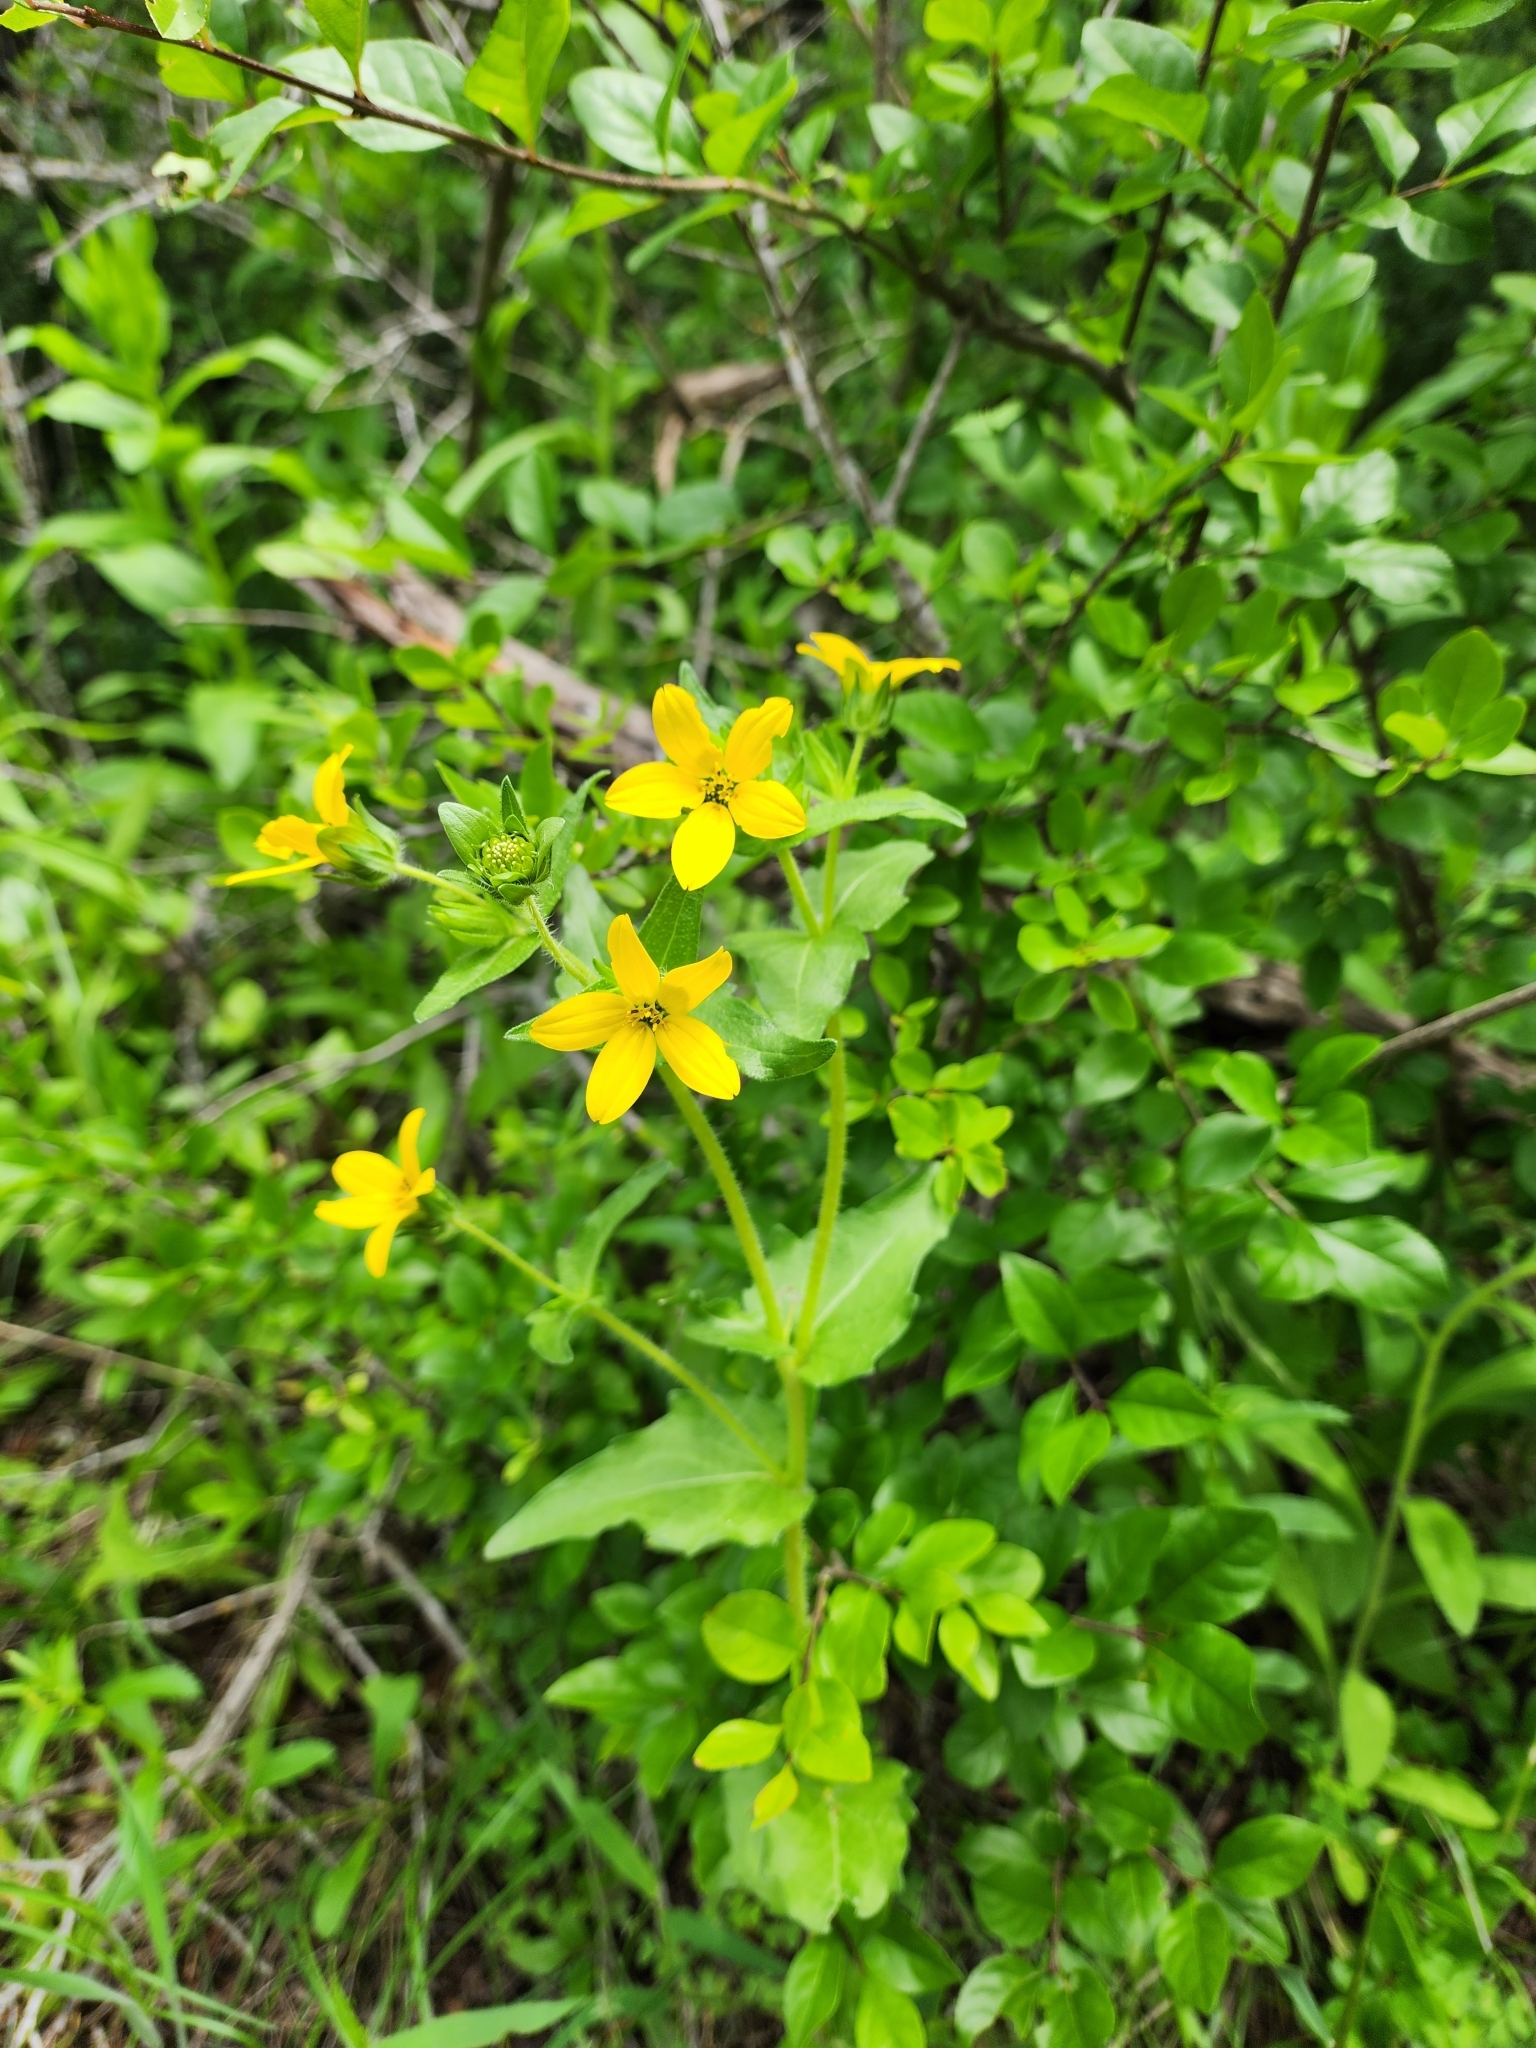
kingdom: Plantae
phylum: Tracheophyta
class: Magnoliopsida
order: Asterales
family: Asteraceae
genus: Lindheimera
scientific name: Lindheimera texana
